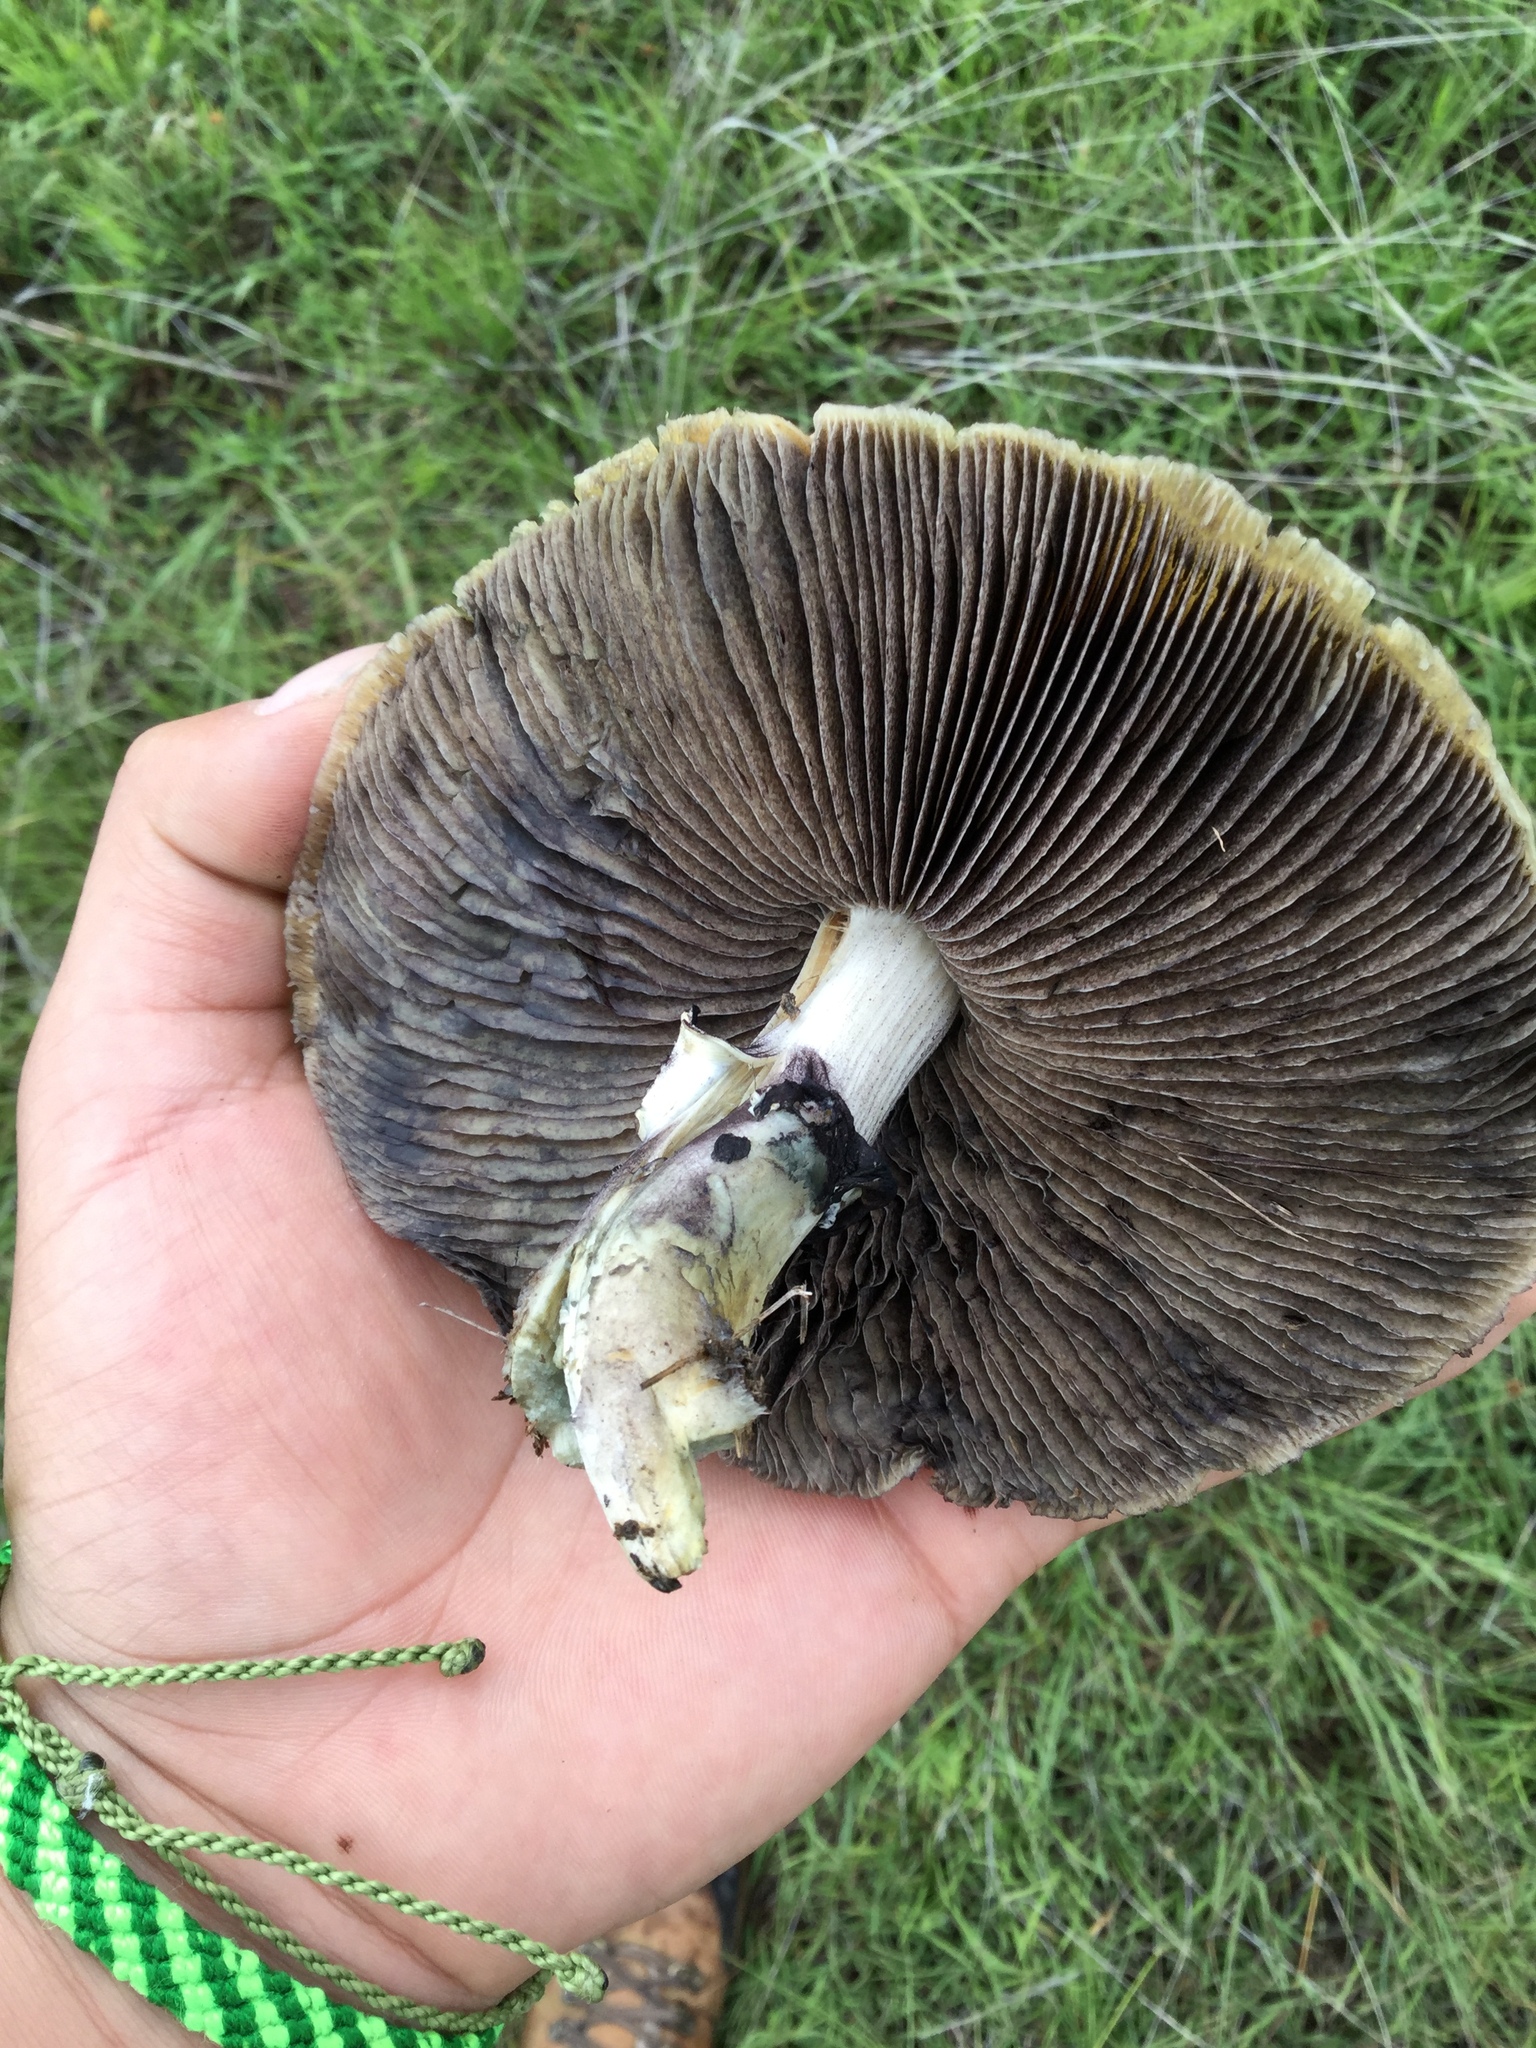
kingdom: Fungi
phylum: Basidiomycota
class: Agaricomycetes
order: Agaricales
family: Hymenogastraceae
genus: Psilocybe
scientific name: Psilocybe cubensis
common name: Golden brownie
